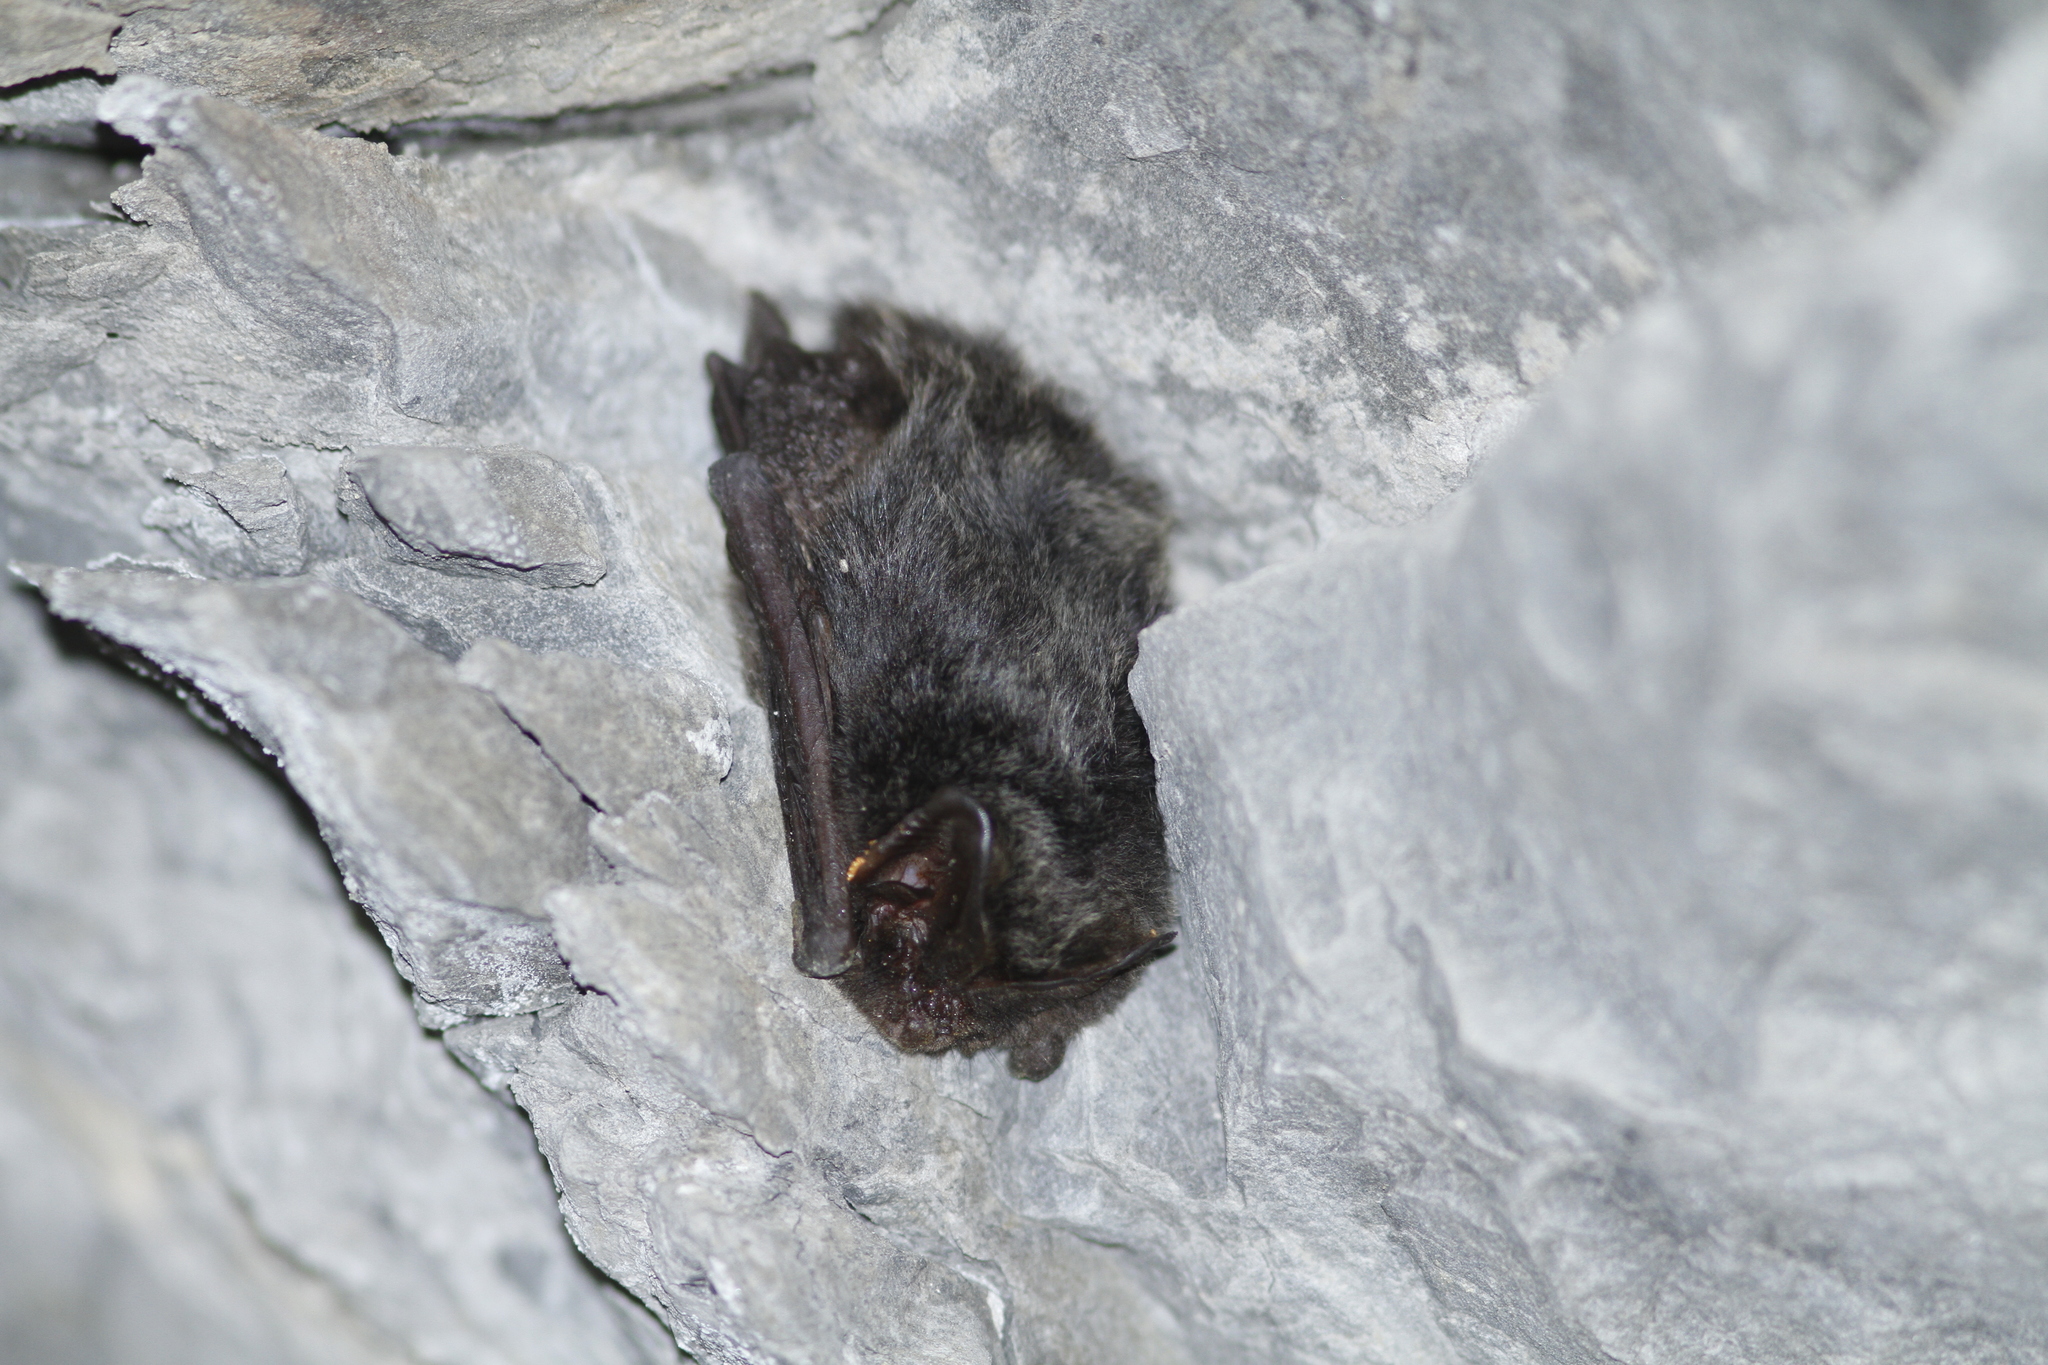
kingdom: Animalia
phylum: Chordata
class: Mammalia
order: Chiroptera
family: Vespertilionidae
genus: Barbastella
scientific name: Barbastella barbastellus
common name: Western barbastelle
